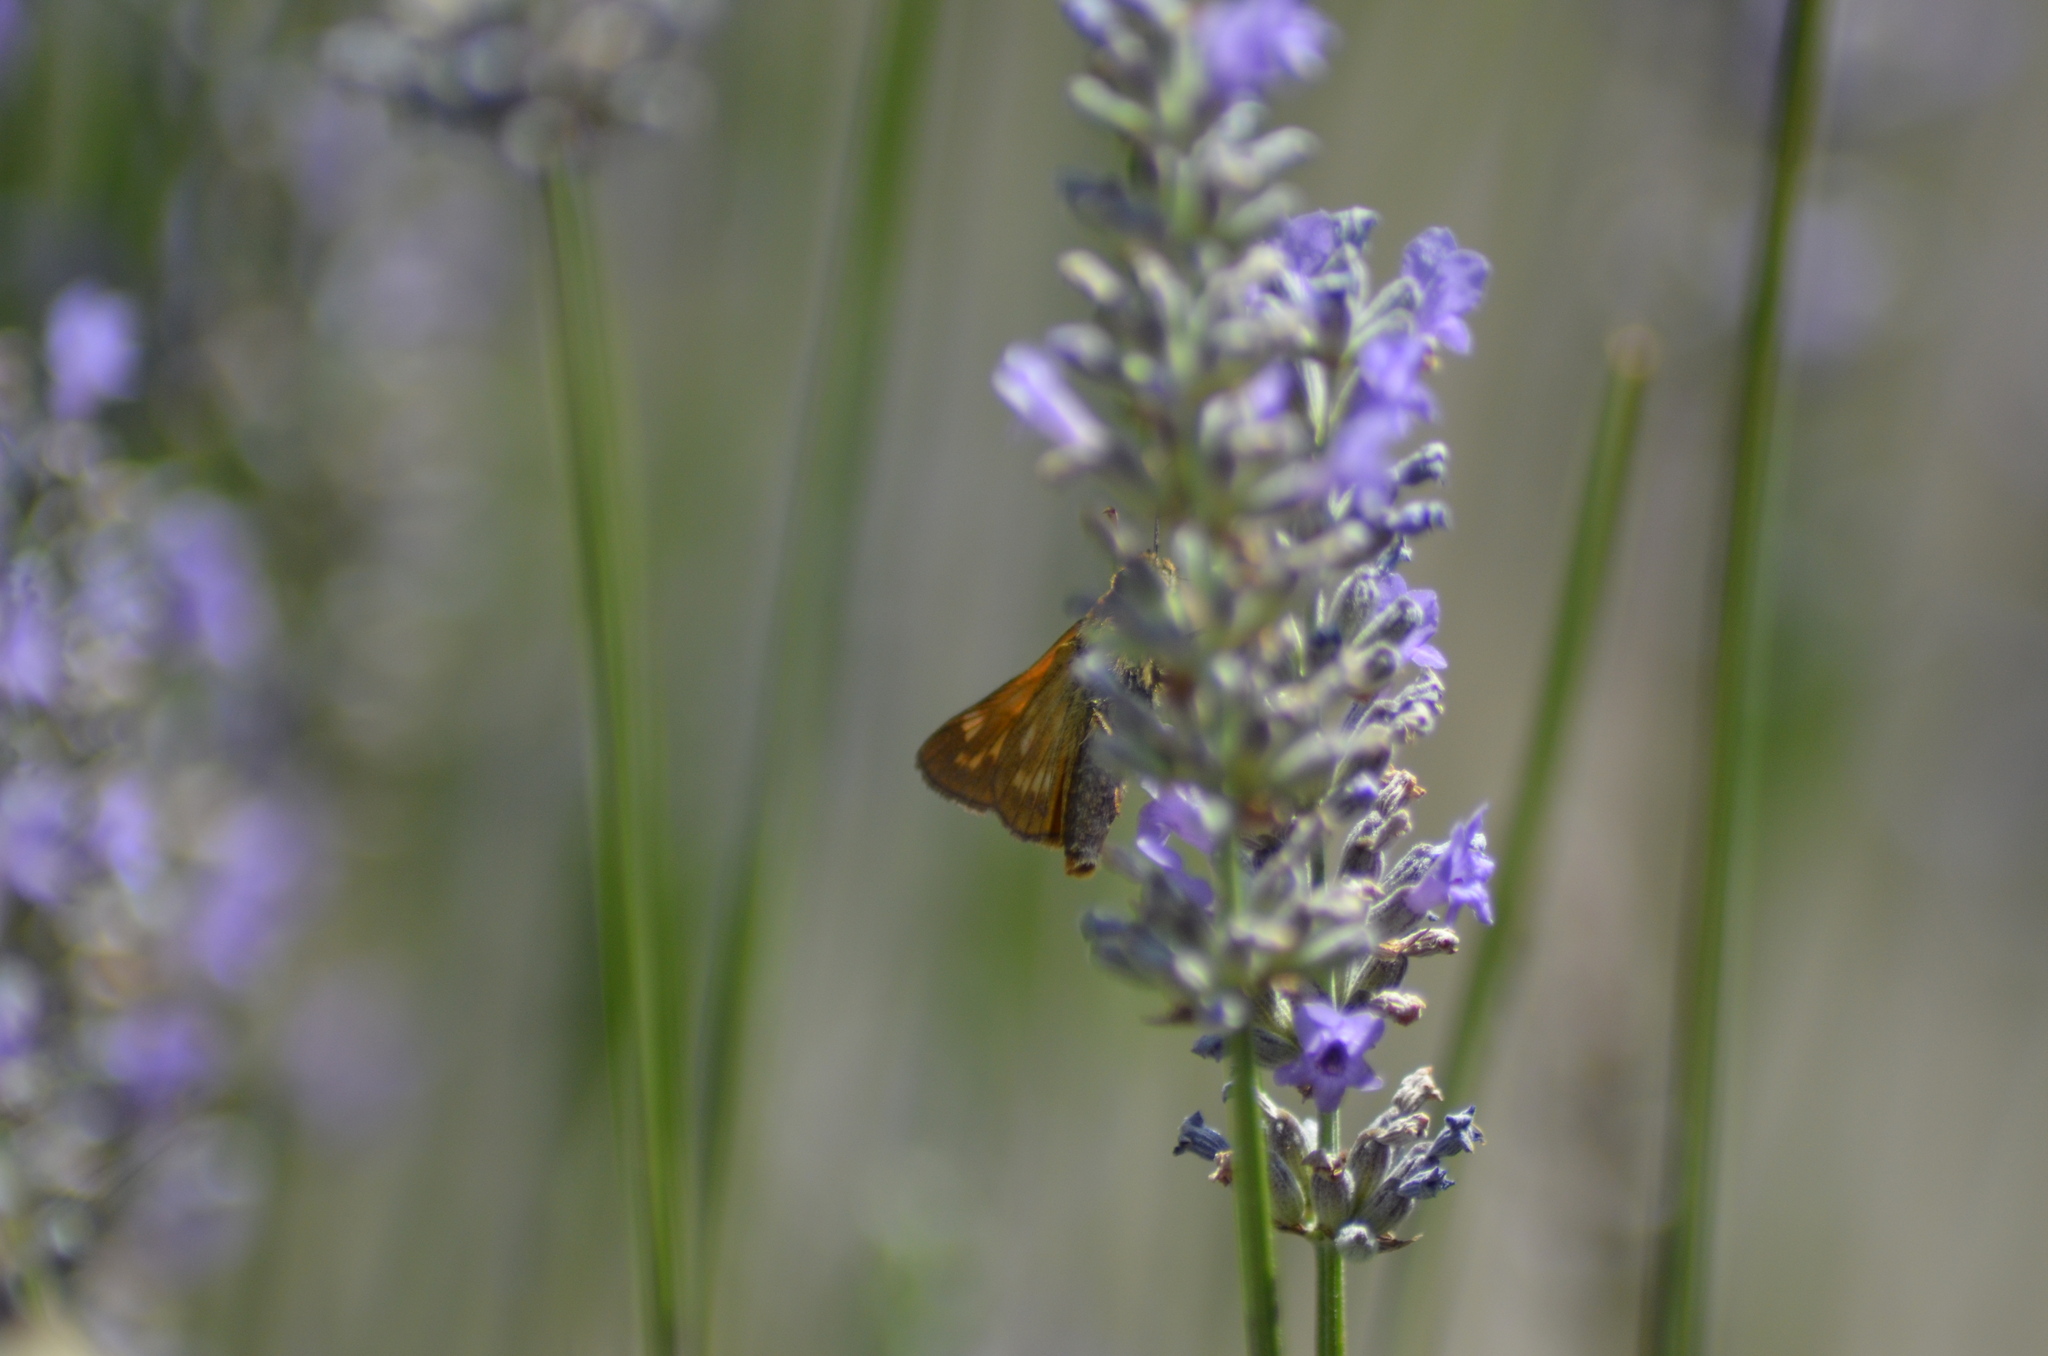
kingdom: Animalia
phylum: Arthropoda
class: Insecta
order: Lepidoptera
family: Hesperiidae
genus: Ochlodes
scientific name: Ochlodes venata
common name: Large skipper
